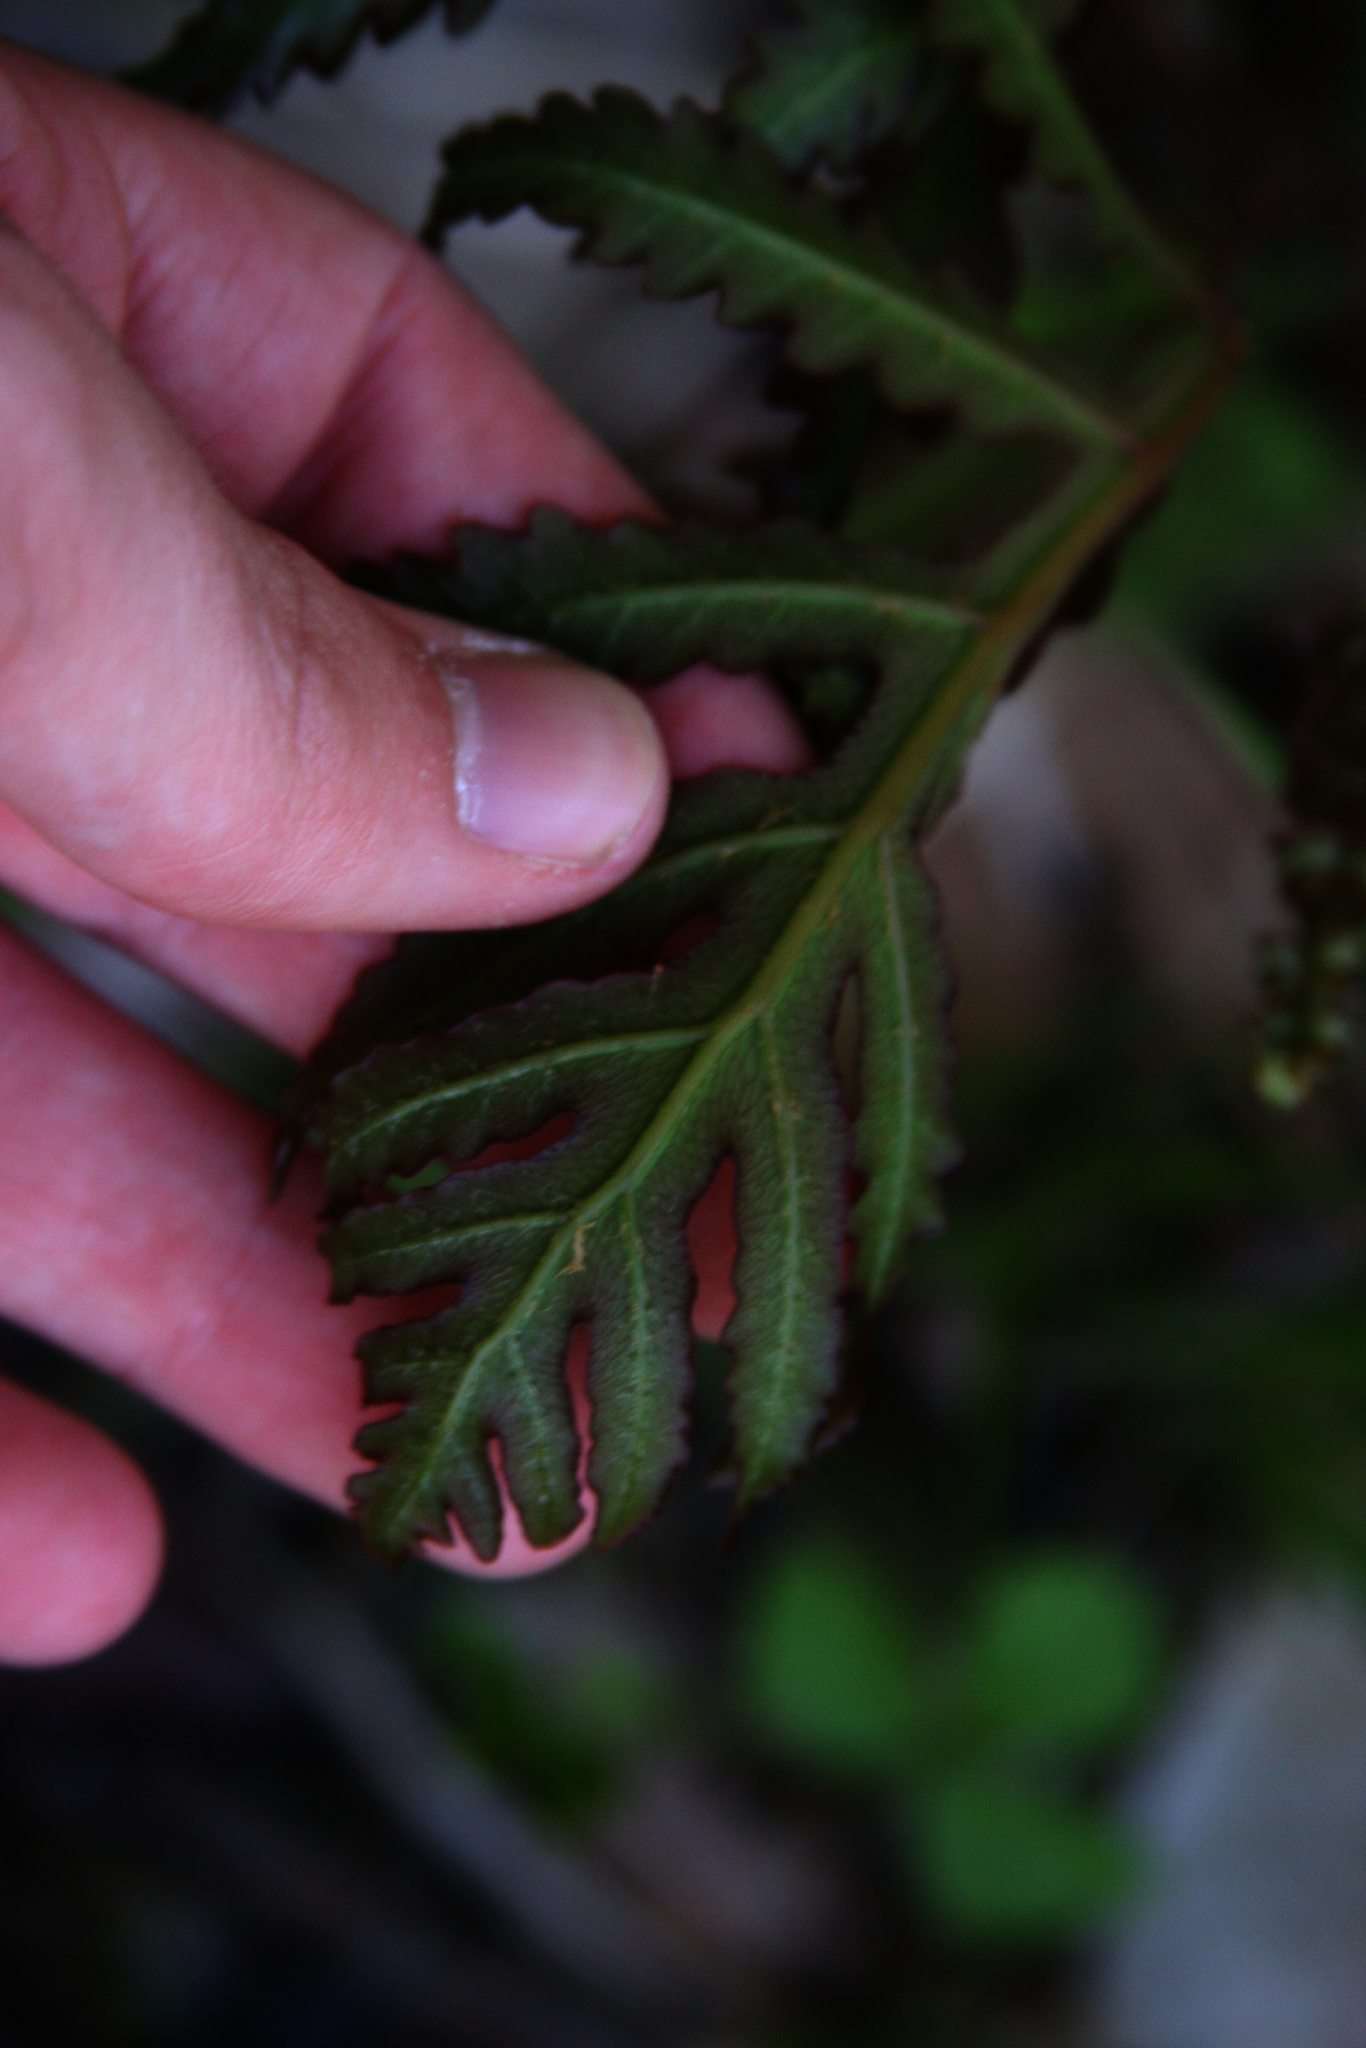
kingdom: Plantae
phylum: Tracheophyta
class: Polypodiopsida
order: Polypodiales
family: Onocleaceae
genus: Onoclea
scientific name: Onoclea sensibilis
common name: Sensitive fern
